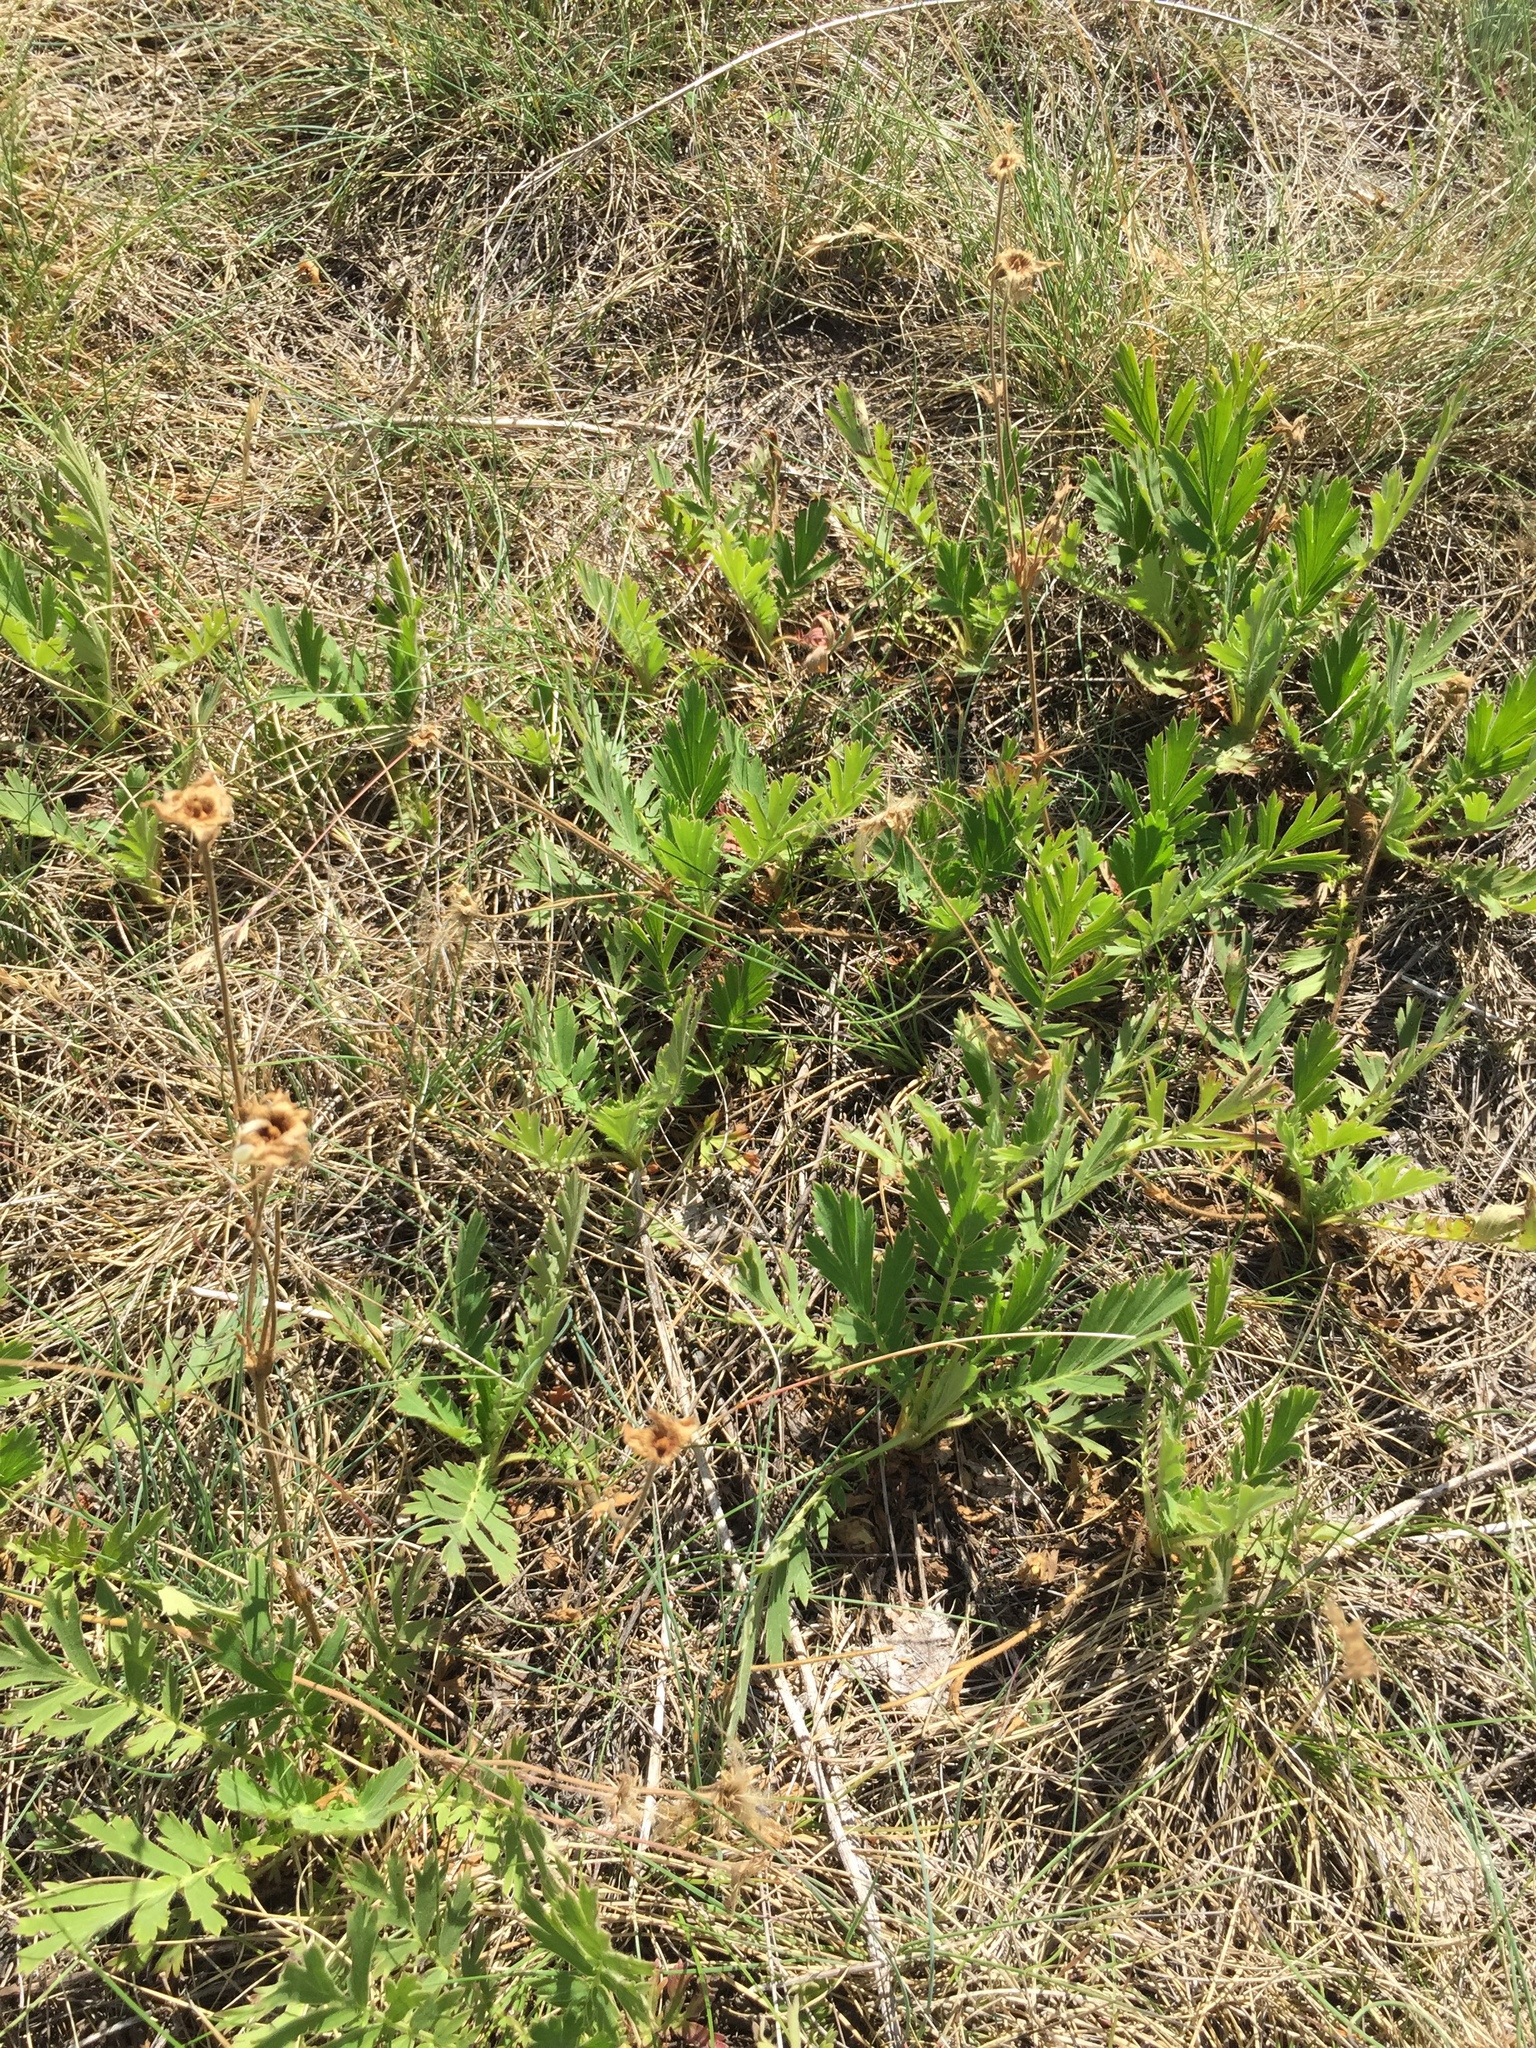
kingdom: Plantae
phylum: Tracheophyta
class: Magnoliopsida
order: Rosales
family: Rosaceae
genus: Geum
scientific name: Geum triflorum
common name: Old man's whiskers
